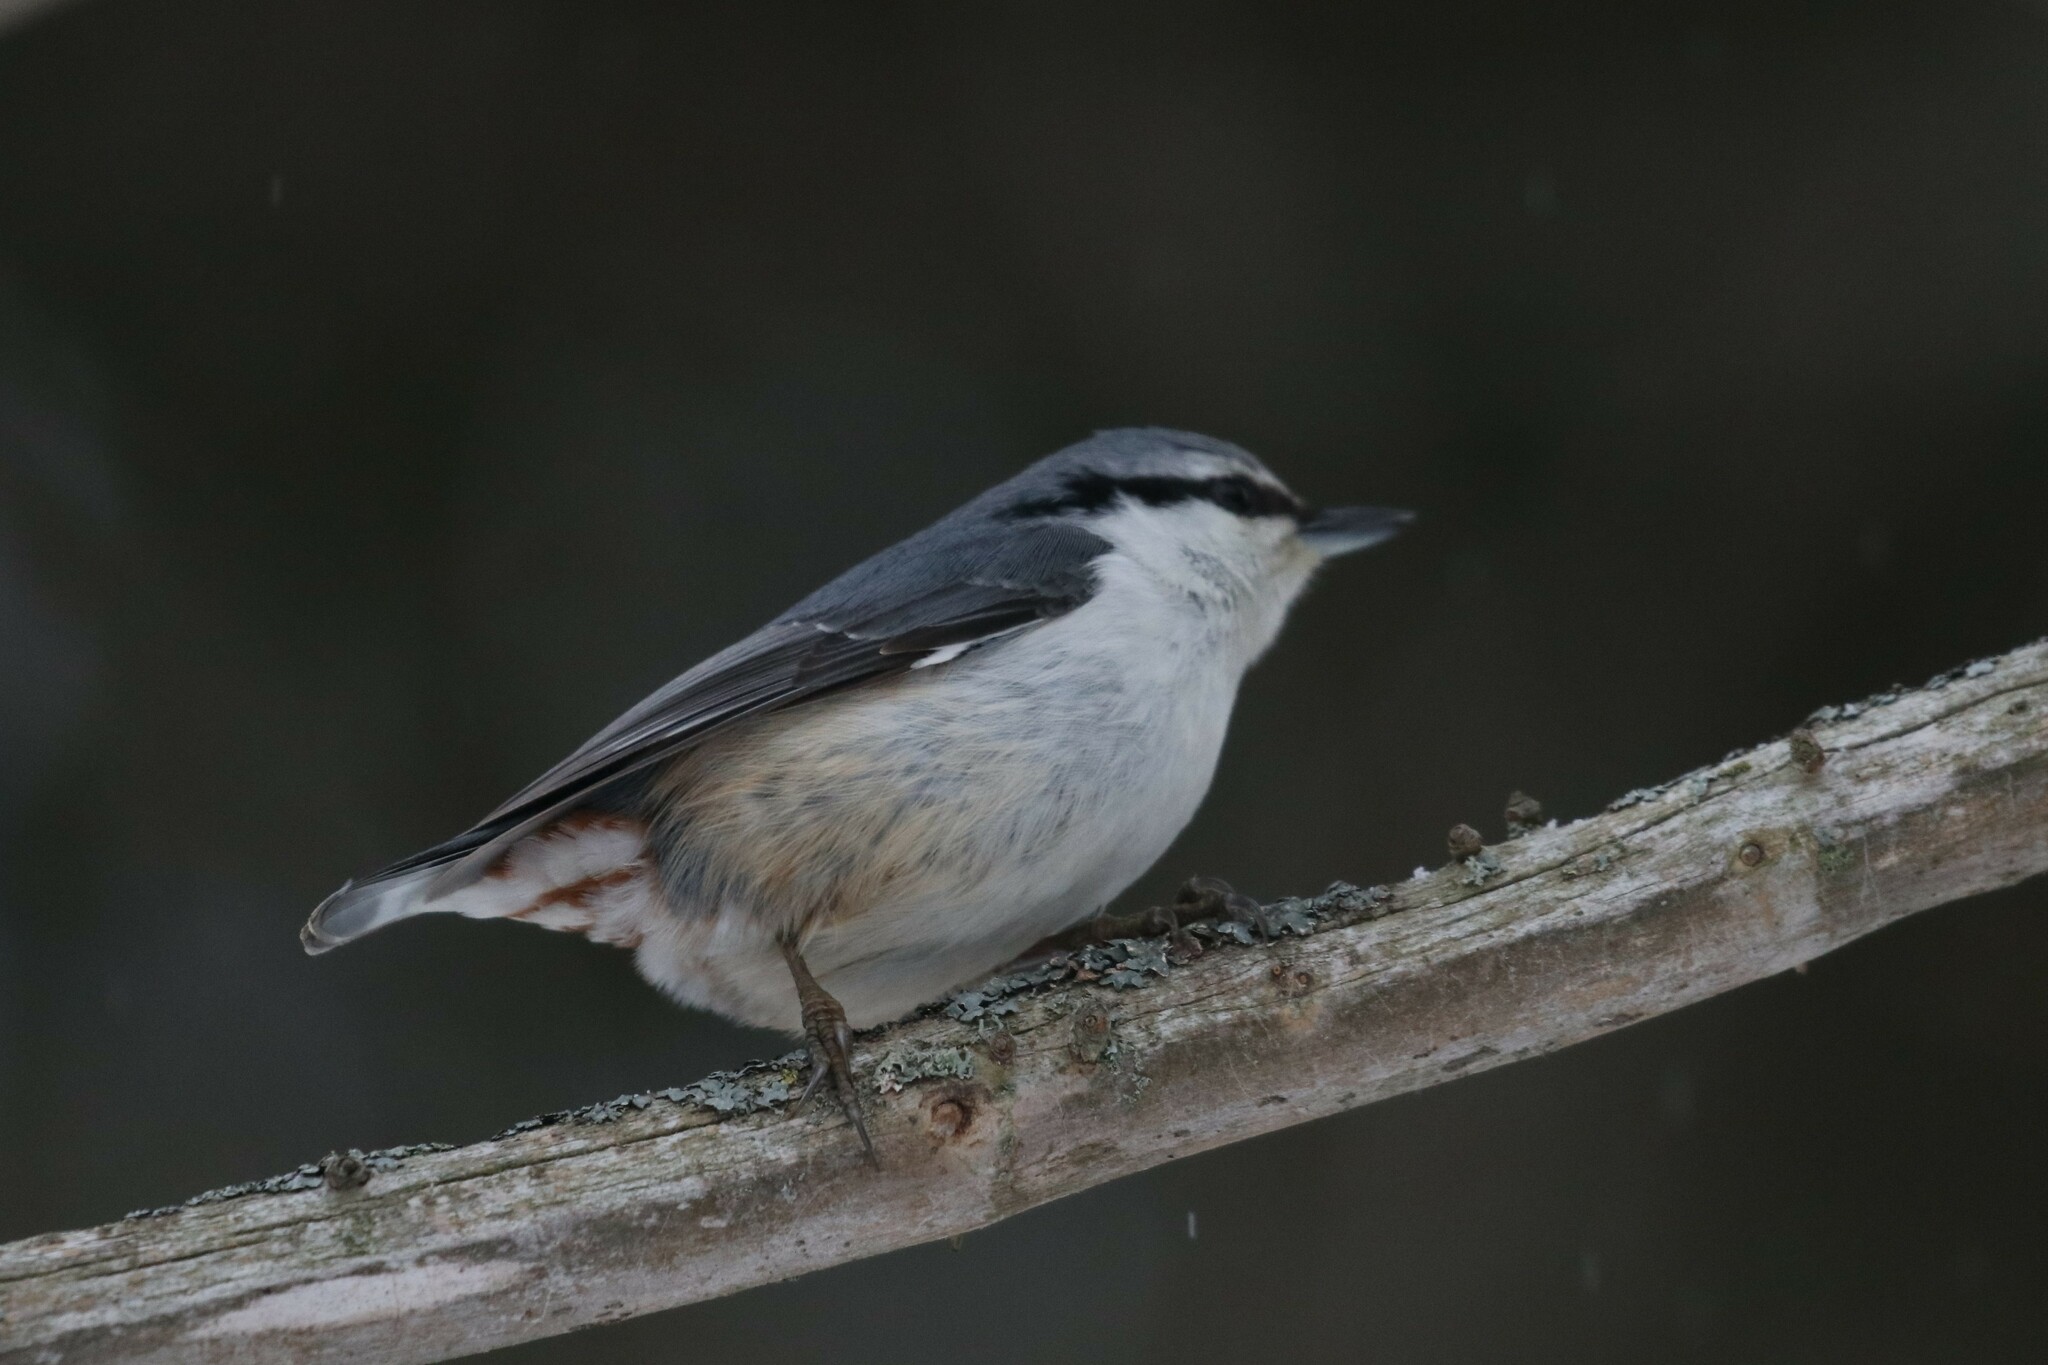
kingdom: Animalia
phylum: Chordata
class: Aves
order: Passeriformes
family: Sittidae
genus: Sitta
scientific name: Sitta europaea
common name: Eurasian nuthatch
